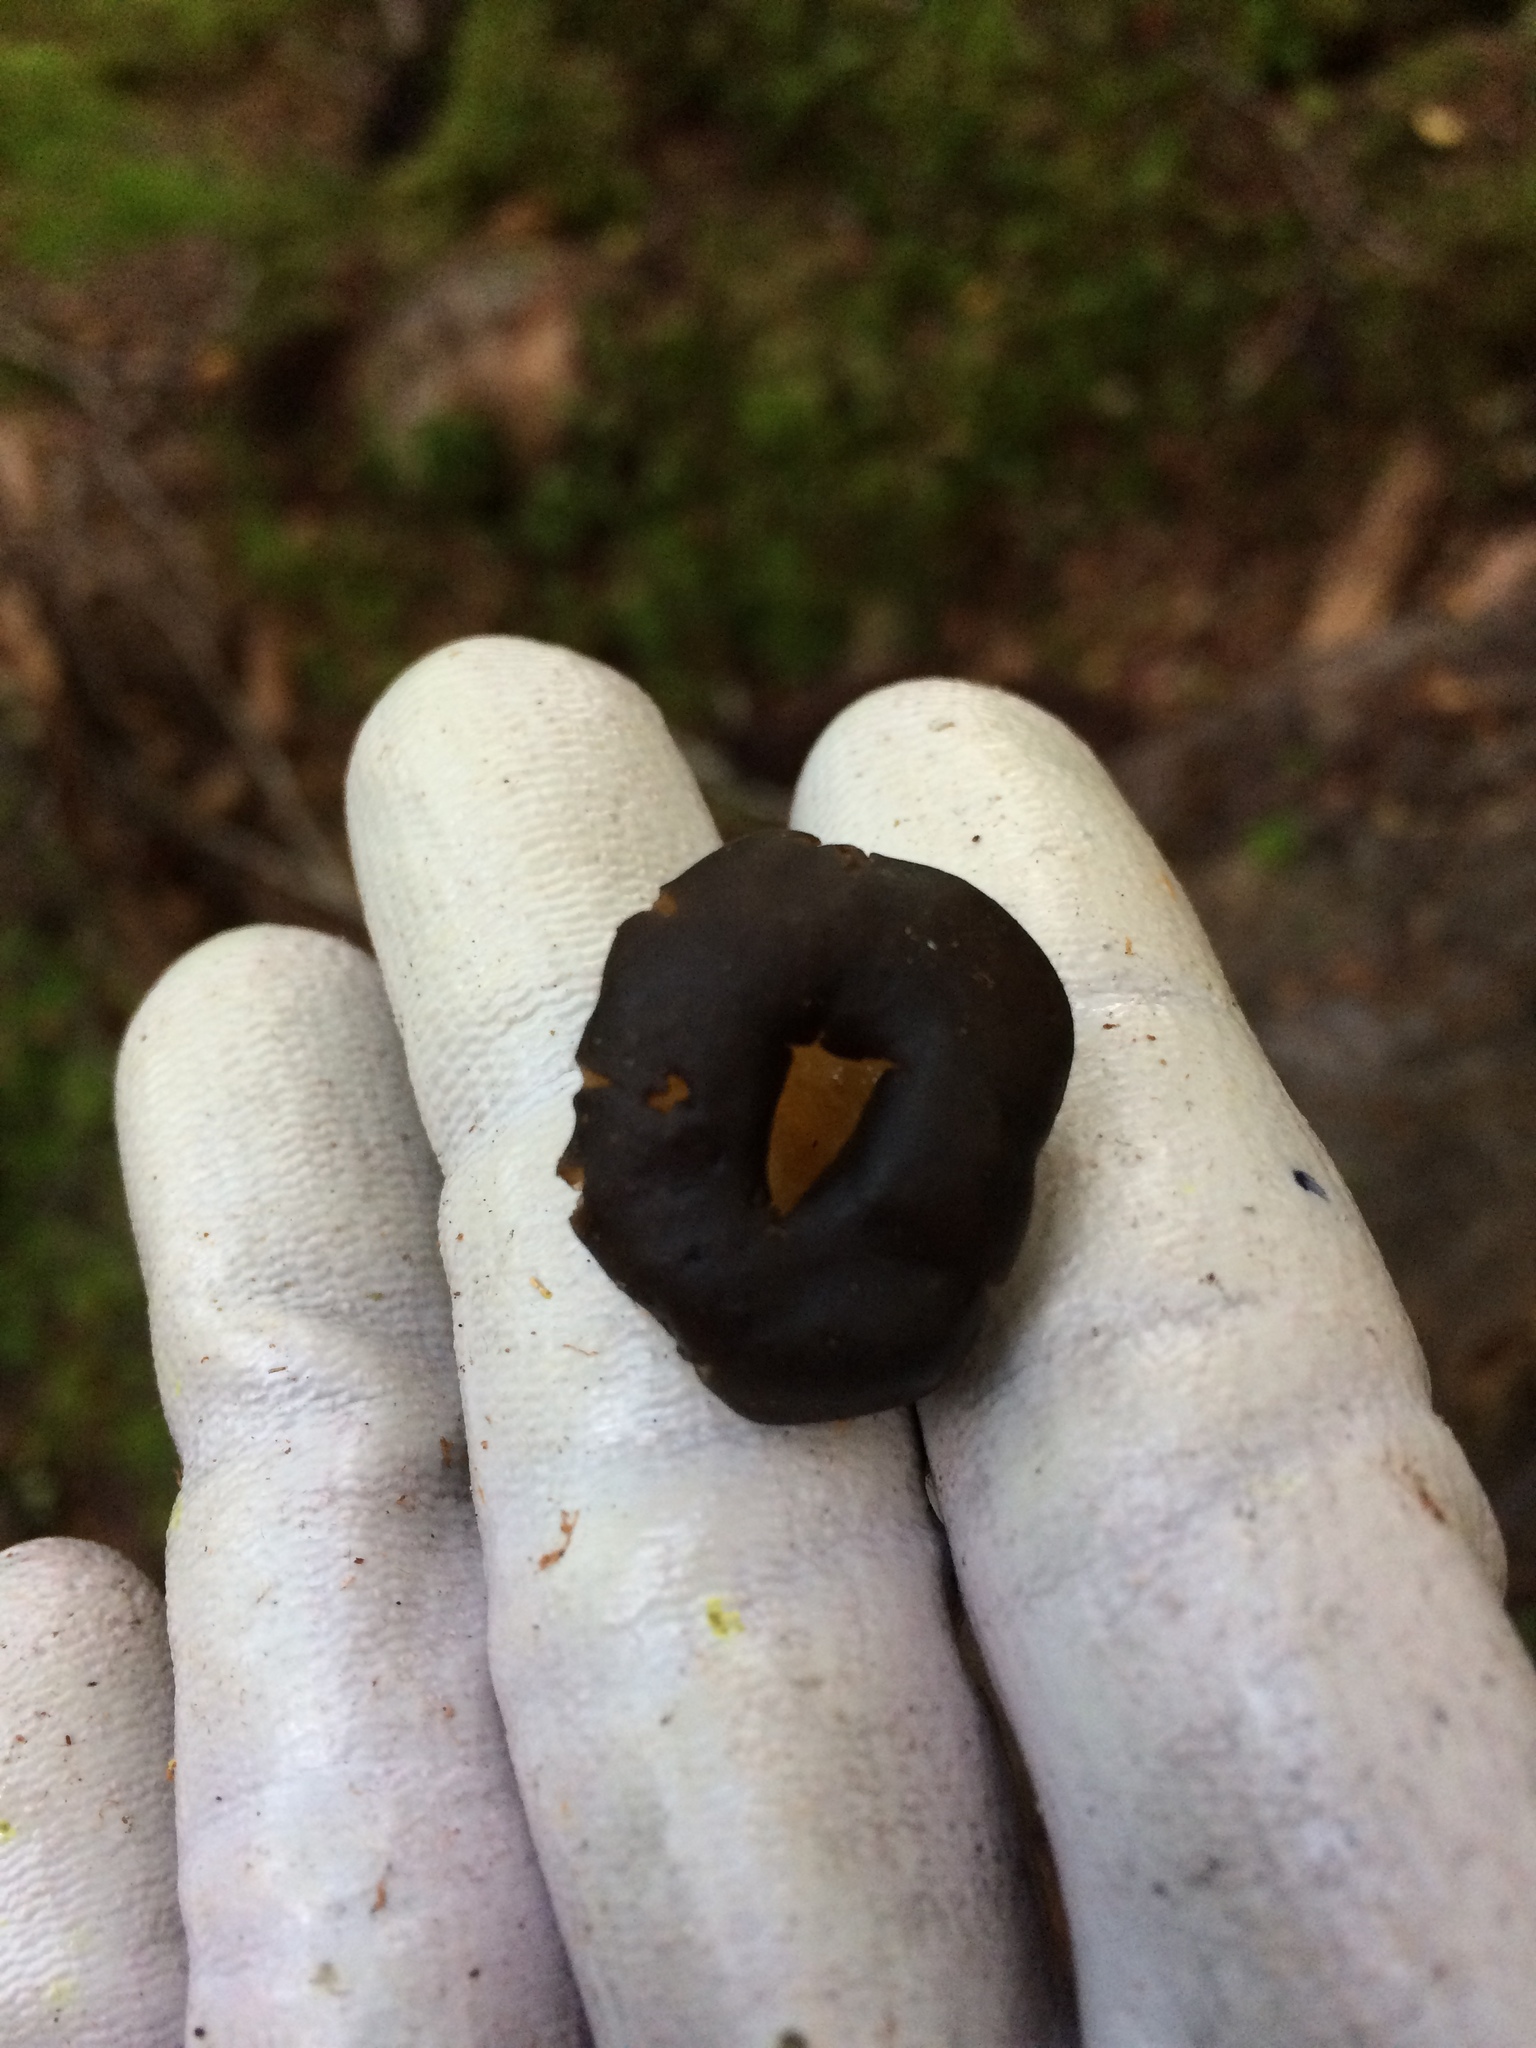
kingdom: Fungi
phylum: Ascomycota
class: Leotiomycetes
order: Leotiales
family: Leotiaceae
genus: Leotia
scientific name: Leotia lubrica
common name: Jellybaby
